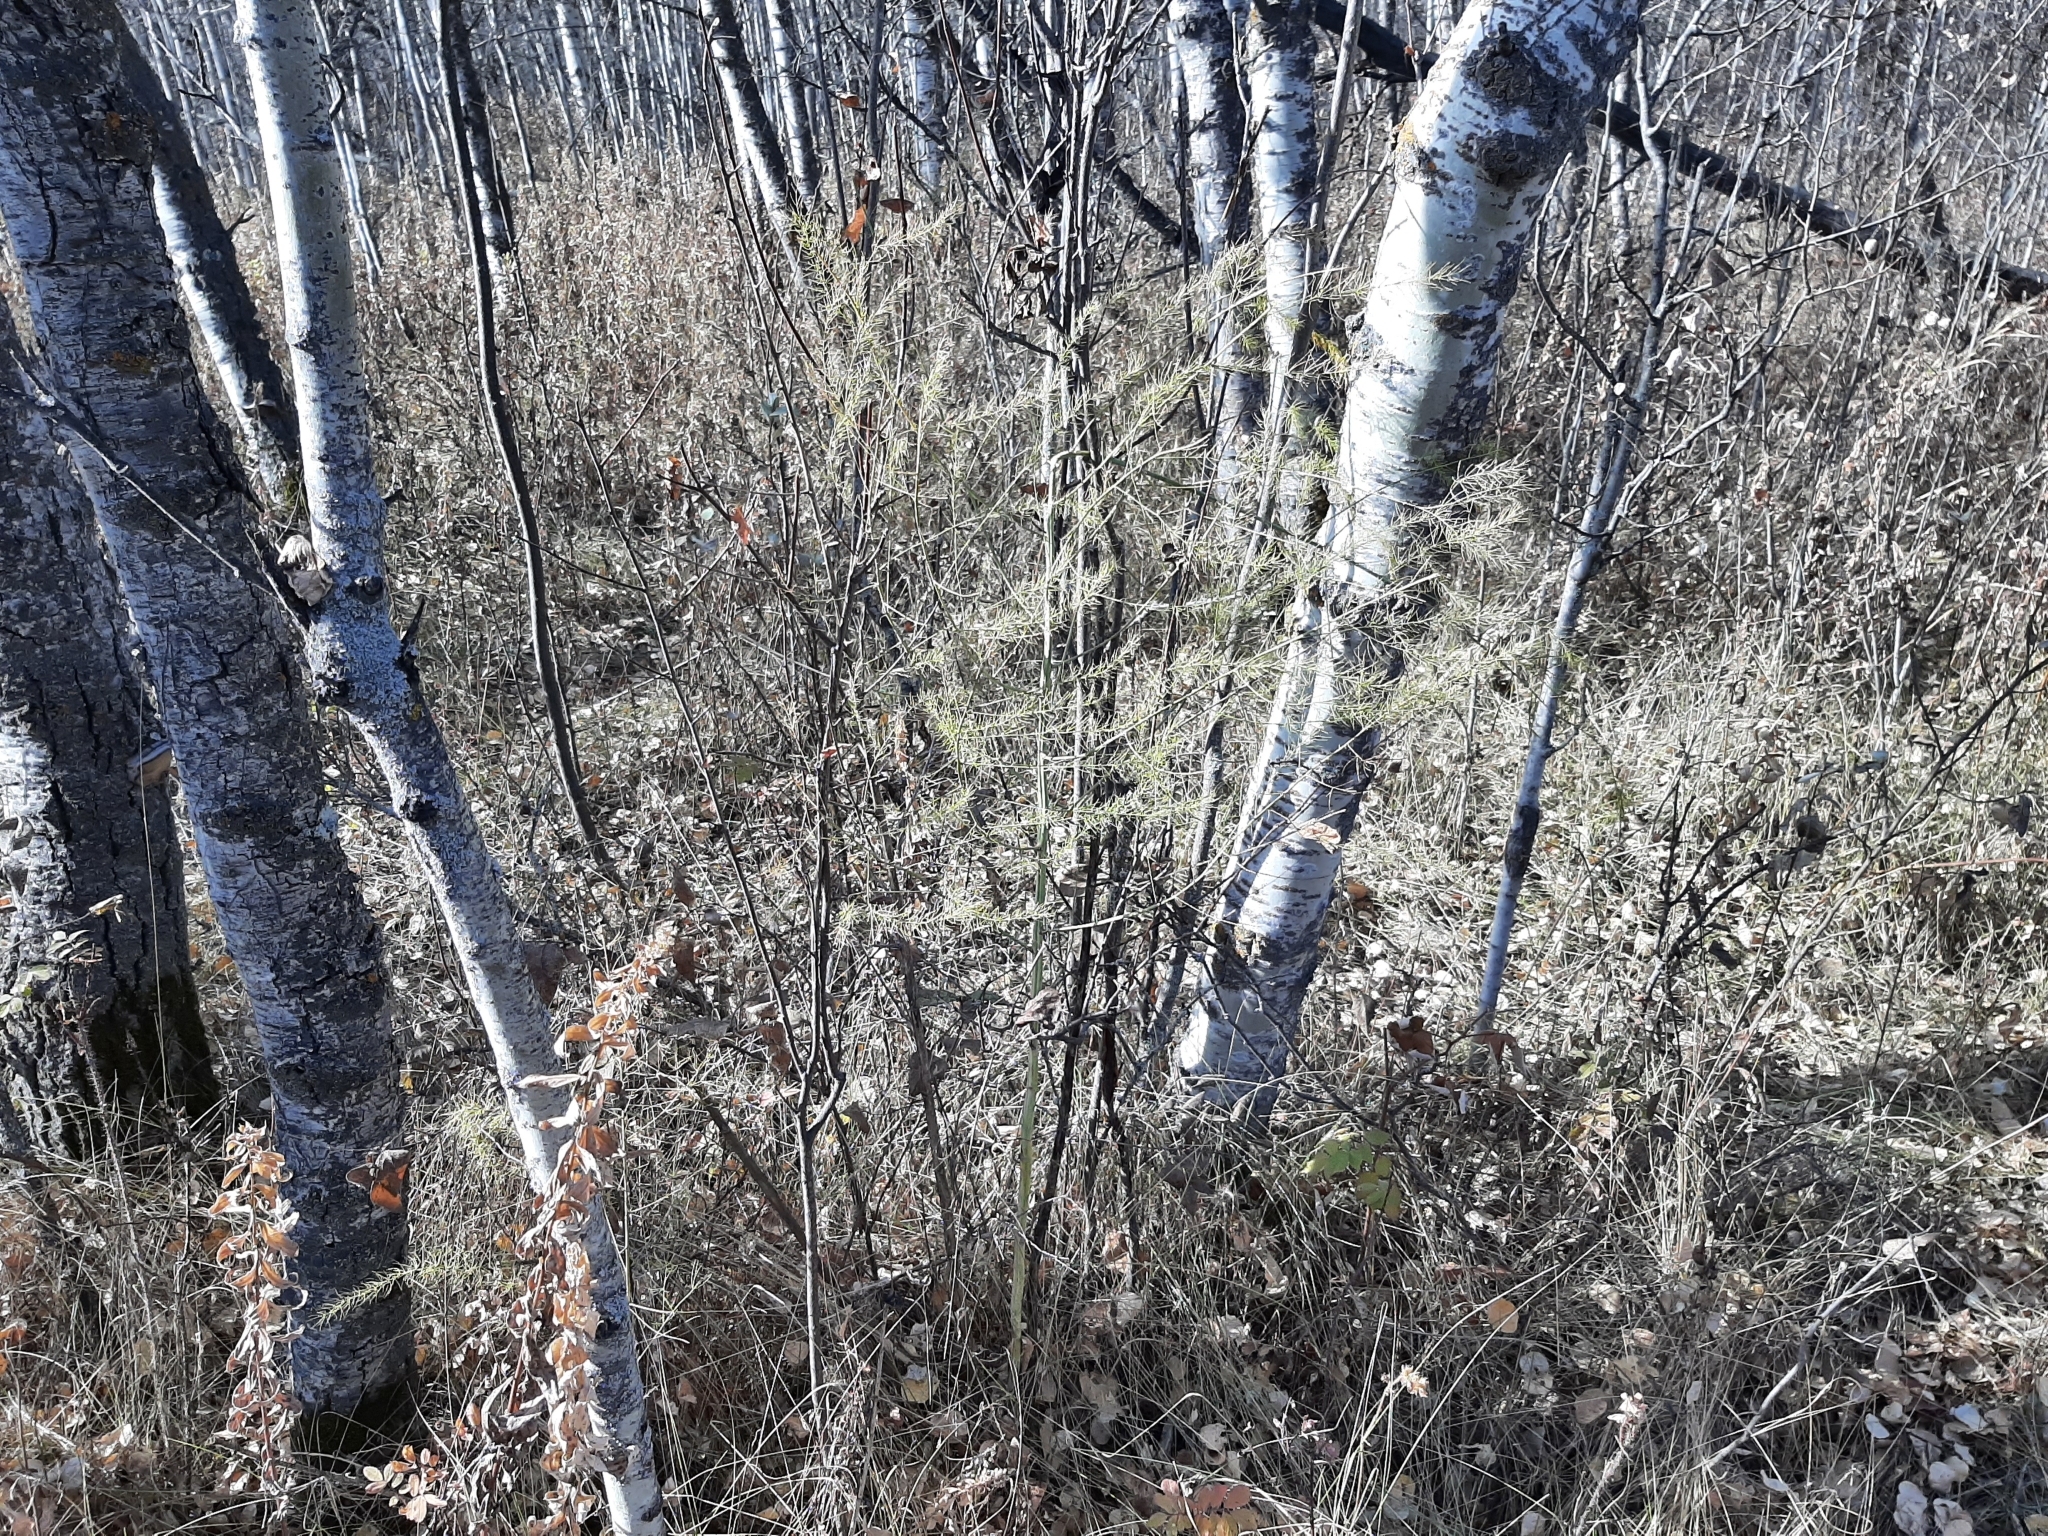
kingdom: Plantae
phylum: Tracheophyta
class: Liliopsida
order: Asparagales
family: Asparagaceae
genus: Asparagus
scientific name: Asparagus officinalis
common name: Garden asparagus
